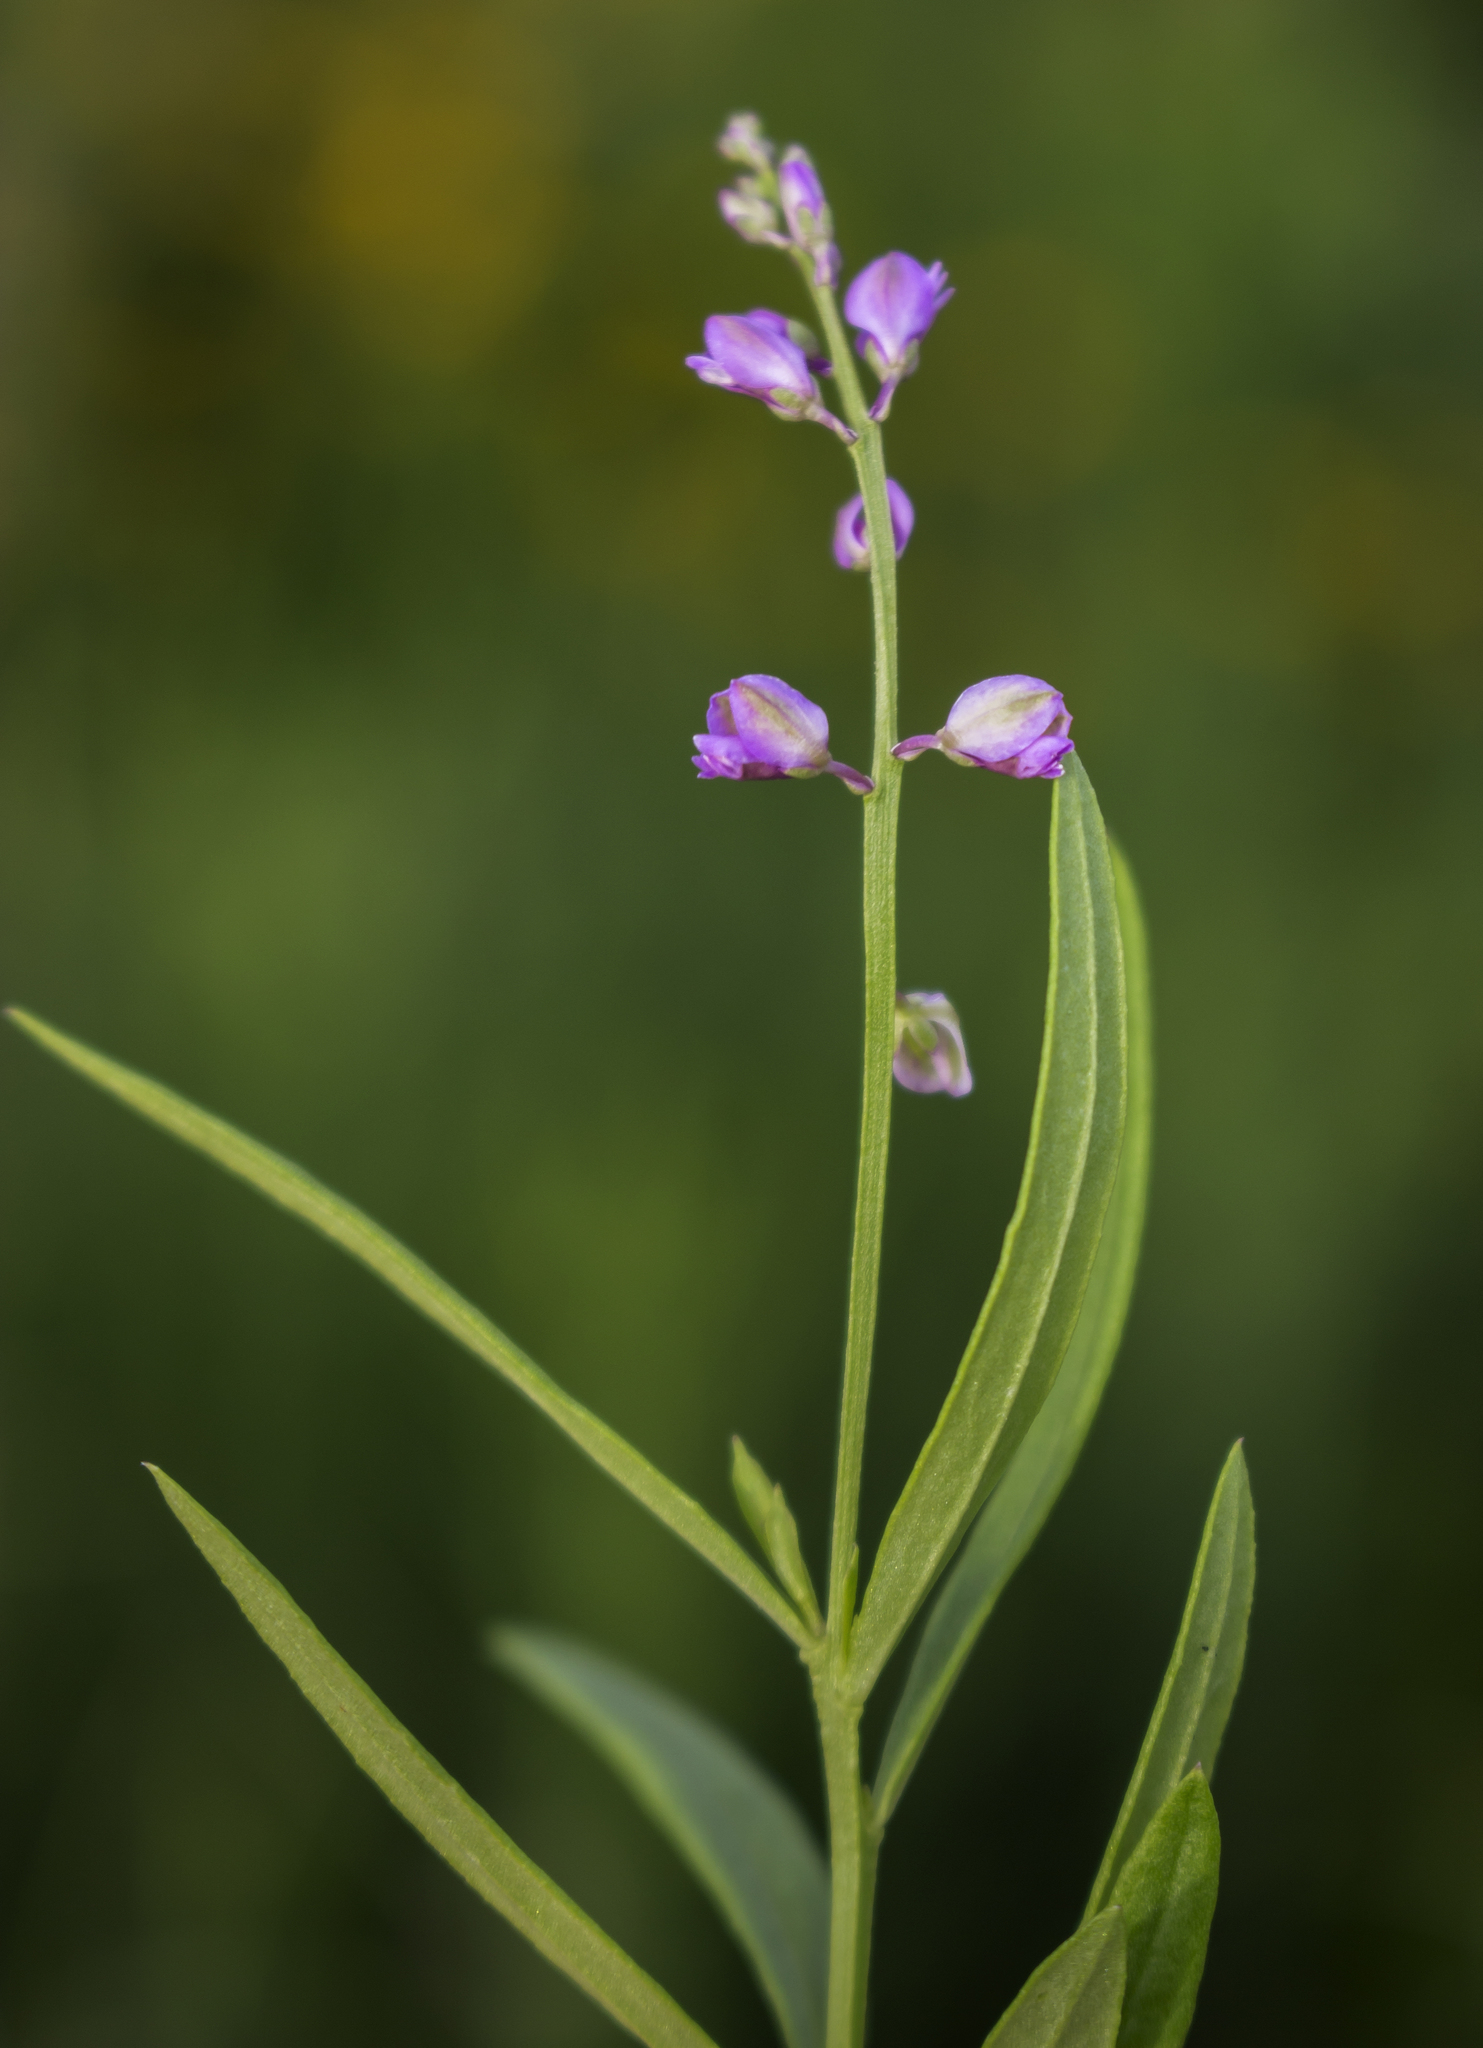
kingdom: Plantae
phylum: Tracheophyta
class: Magnoliopsida
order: Fabales
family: Polygalaceae
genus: Polygala
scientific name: Polygala polygama
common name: Bitter milkwort
